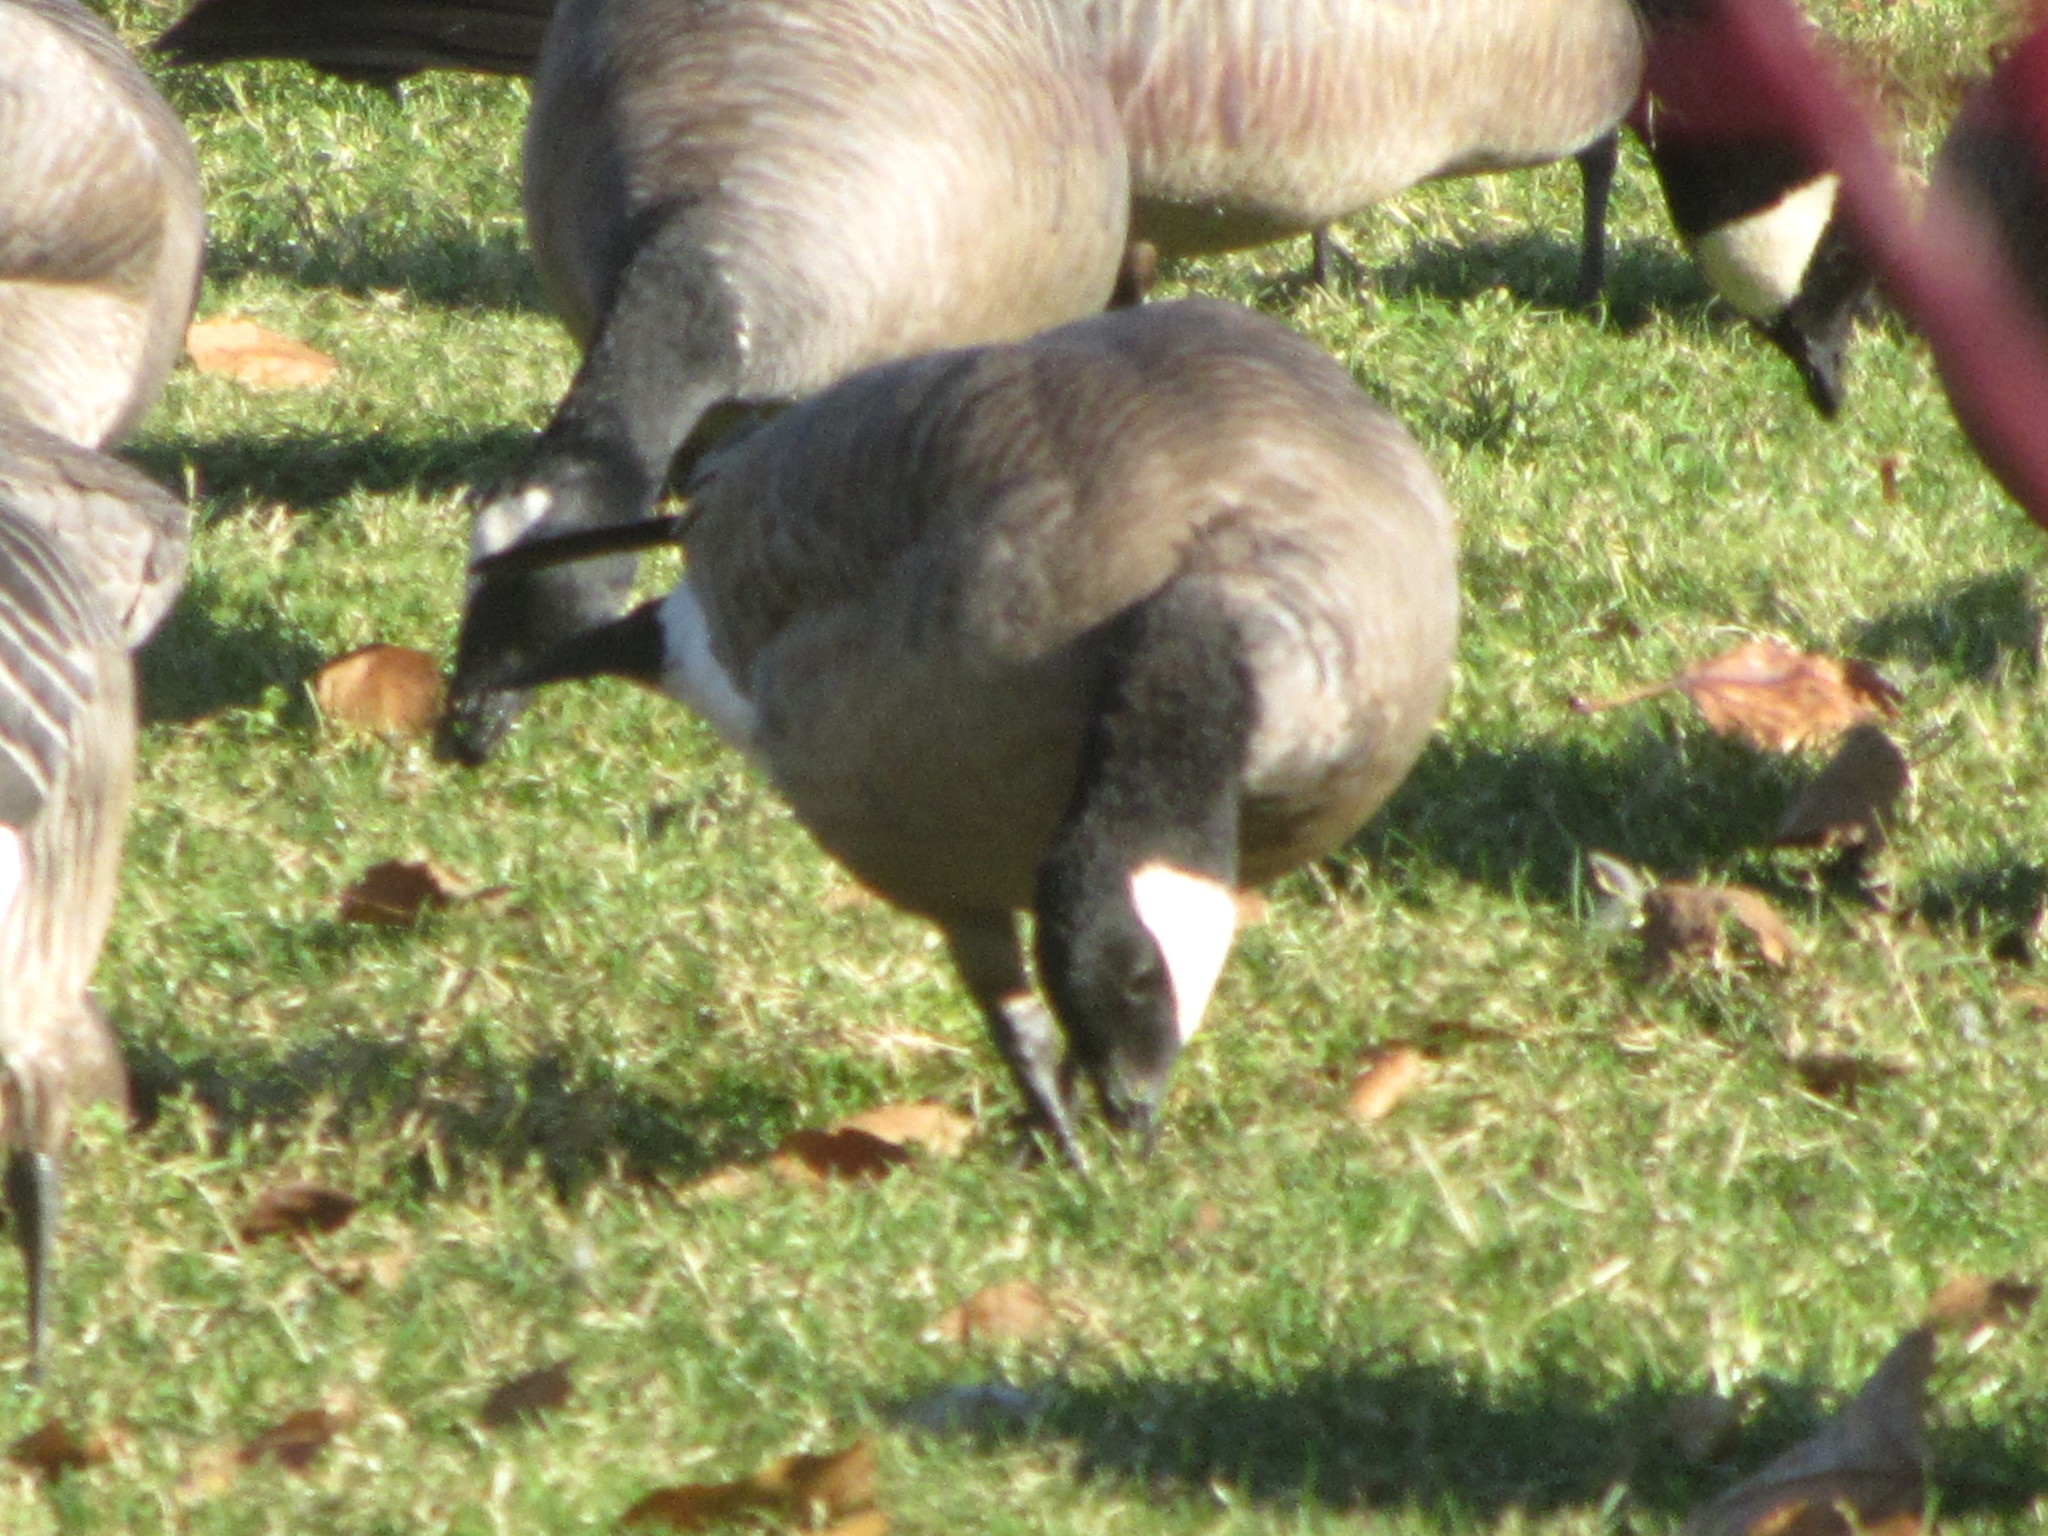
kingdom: Animalia
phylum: Chordata
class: Aves
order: Anseriformes
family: Anatidae
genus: Branta
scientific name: Branta hutchinsii
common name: Cackling goose
